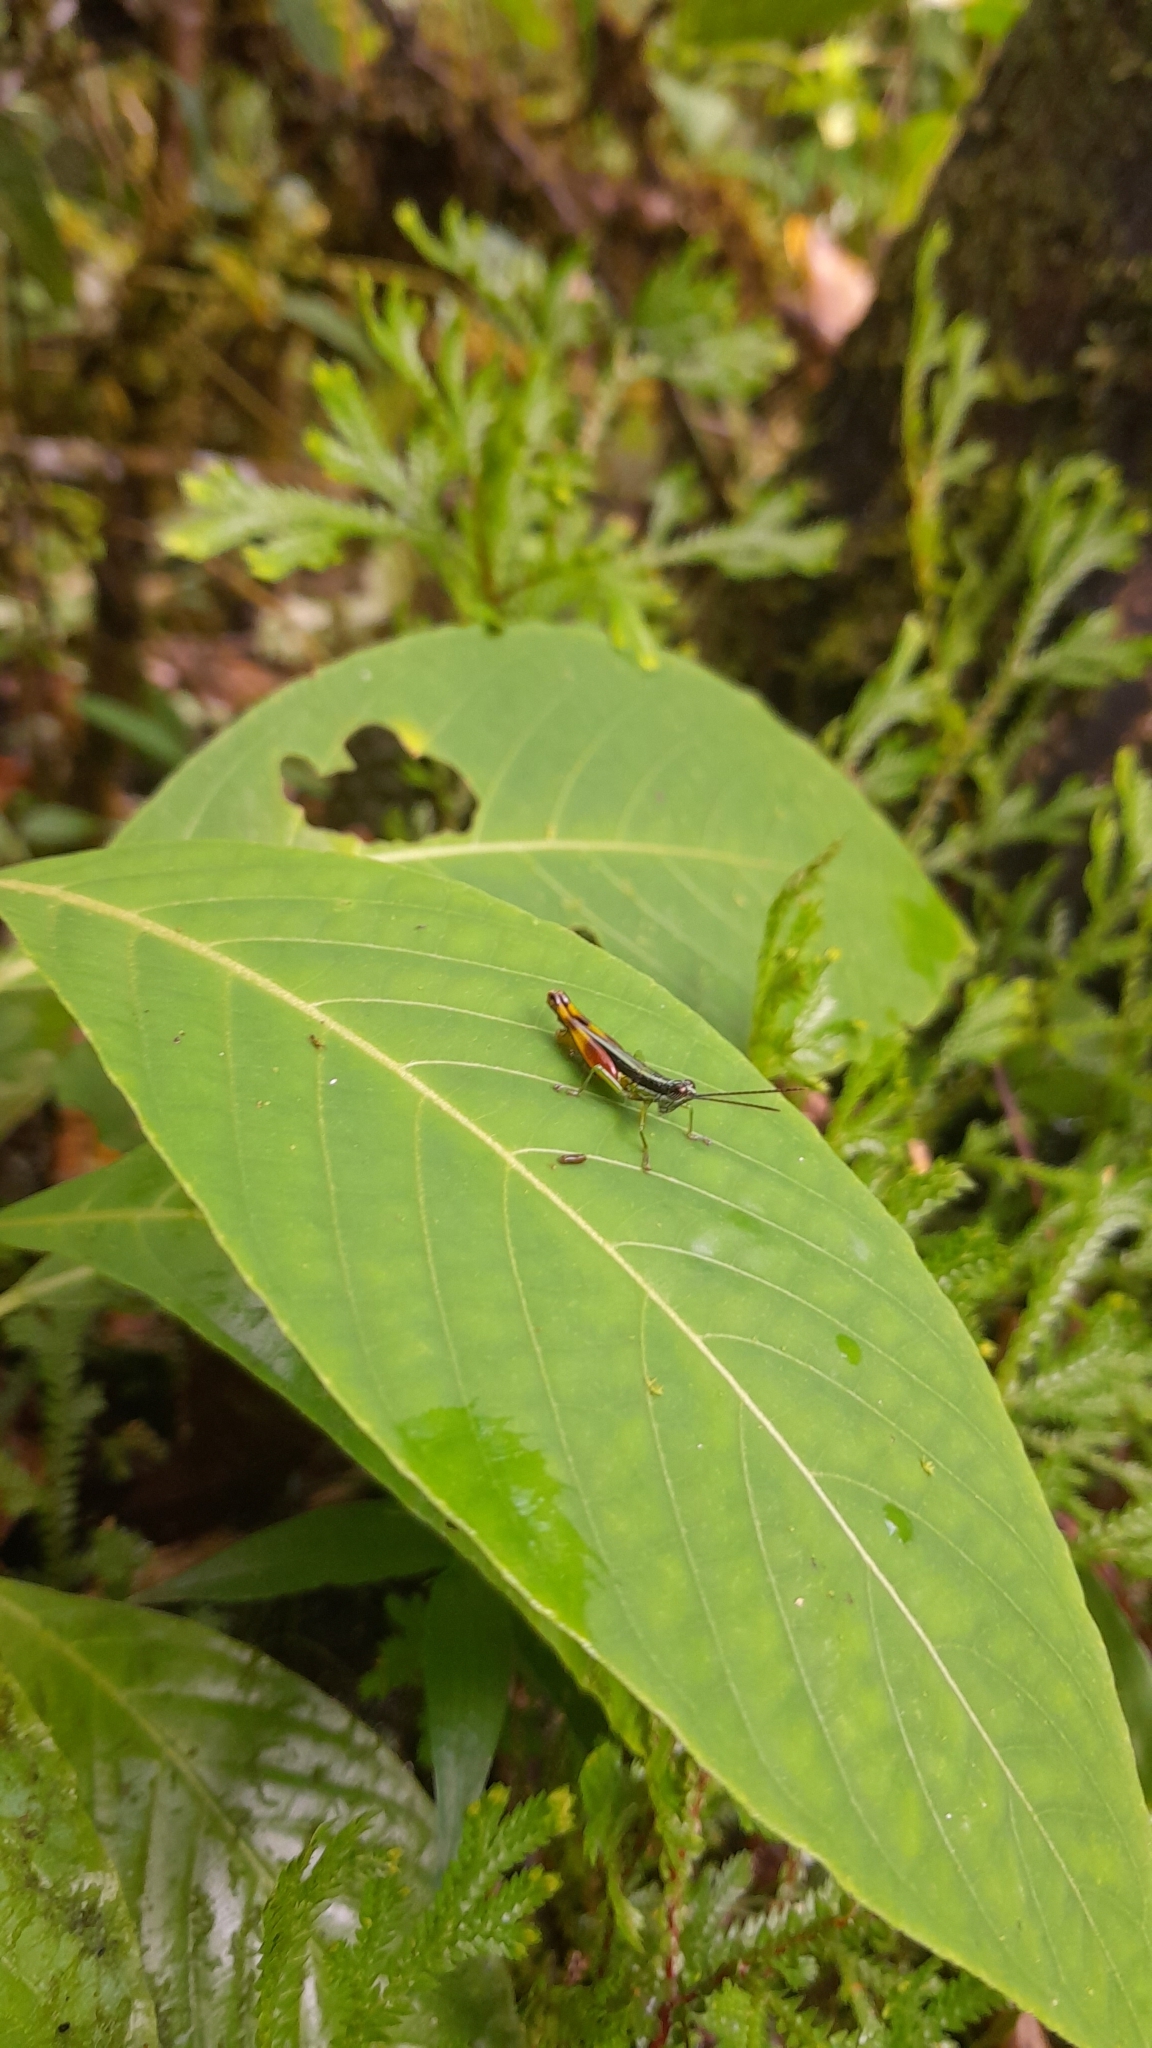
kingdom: Animalia
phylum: Arthropoda
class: Insecta
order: Orthoptera
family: Acrididae
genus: Stenopola
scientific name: Stenopola boliviana
